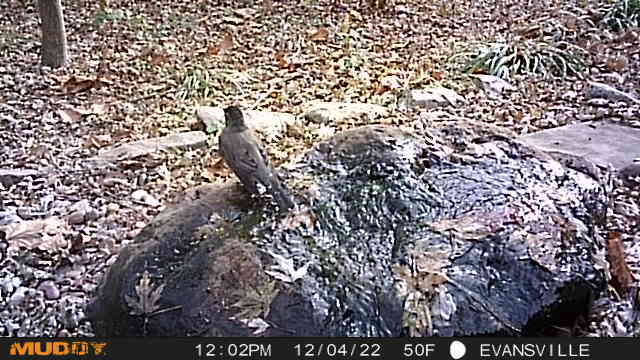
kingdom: Animalia
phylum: Chordata
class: Aves
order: Passeriformes
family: Turdidae
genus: Turdus
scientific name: Turdus migratorius
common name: American robin
